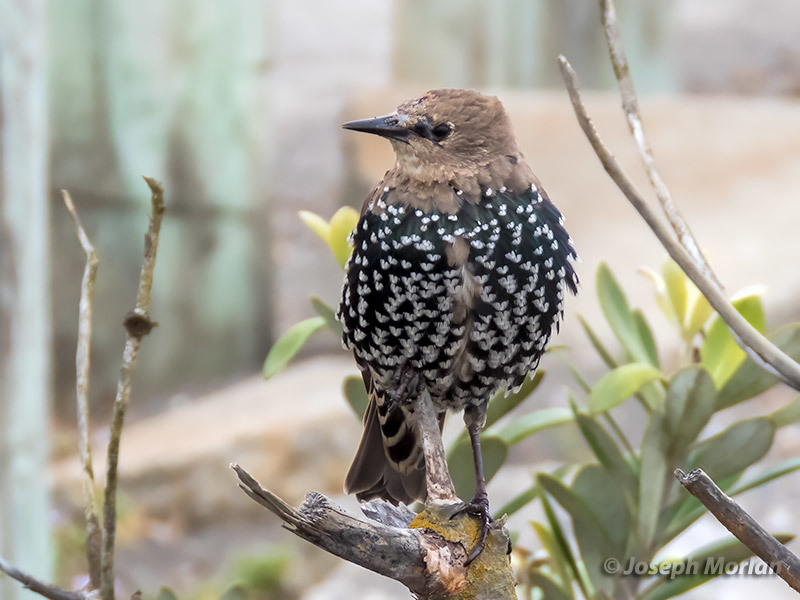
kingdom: Animalia
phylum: Chordata
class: Aves
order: Passeriformes
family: Sturnidae
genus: Sturnus
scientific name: Sturnus vulgaris
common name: Common starling
